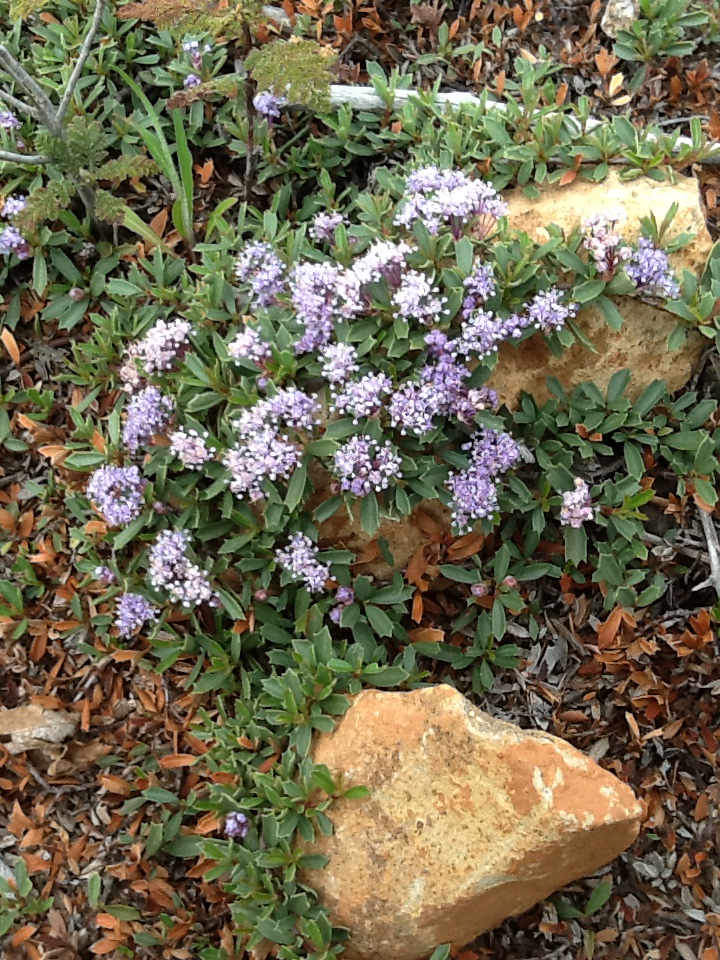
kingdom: Plantae
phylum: Tracheophyta
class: Magnoliopsida
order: Rosales
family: Rhamnaceae
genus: Ceanothus
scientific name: Ceanothus prostratus
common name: Mahala-mat
